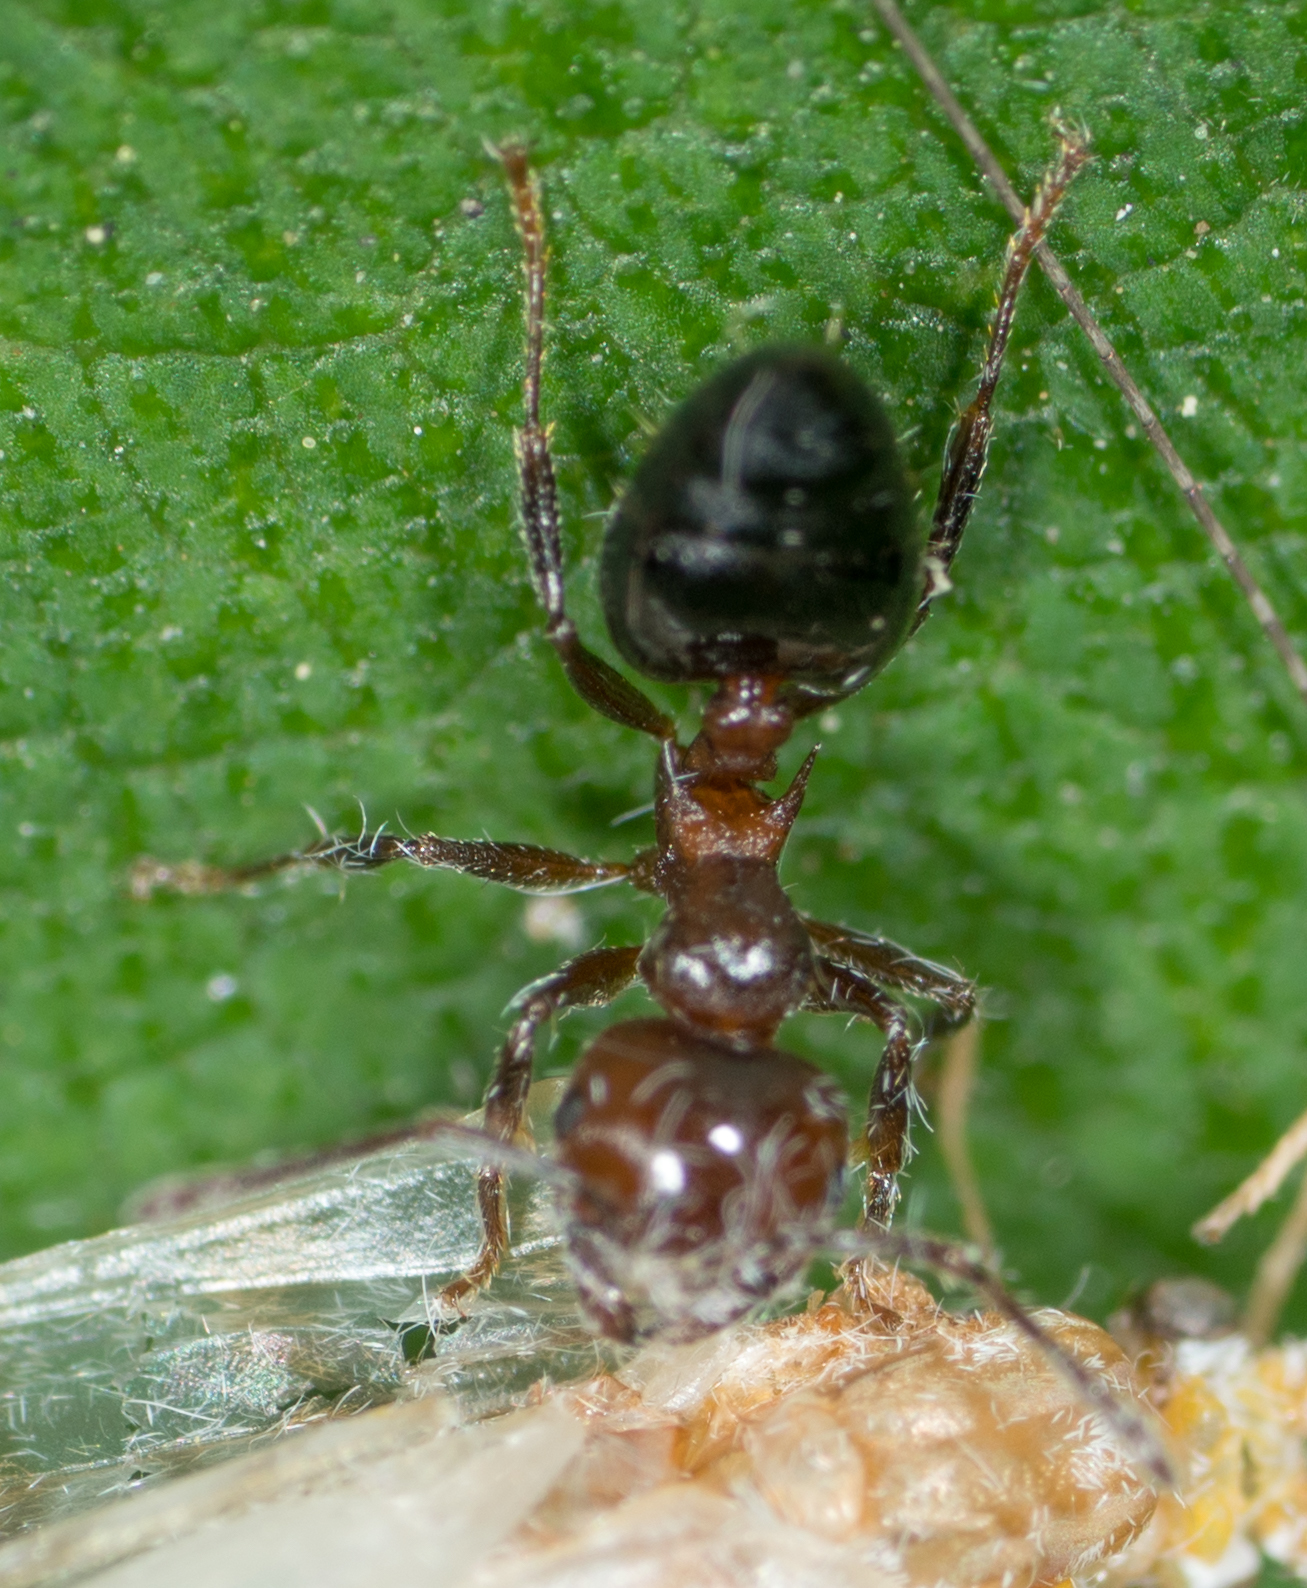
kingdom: Animalia
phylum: Arthropoda
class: Insecta
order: Hymenoptera
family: Formicidae
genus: Crematogaster
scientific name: Crematogaster pilosa
